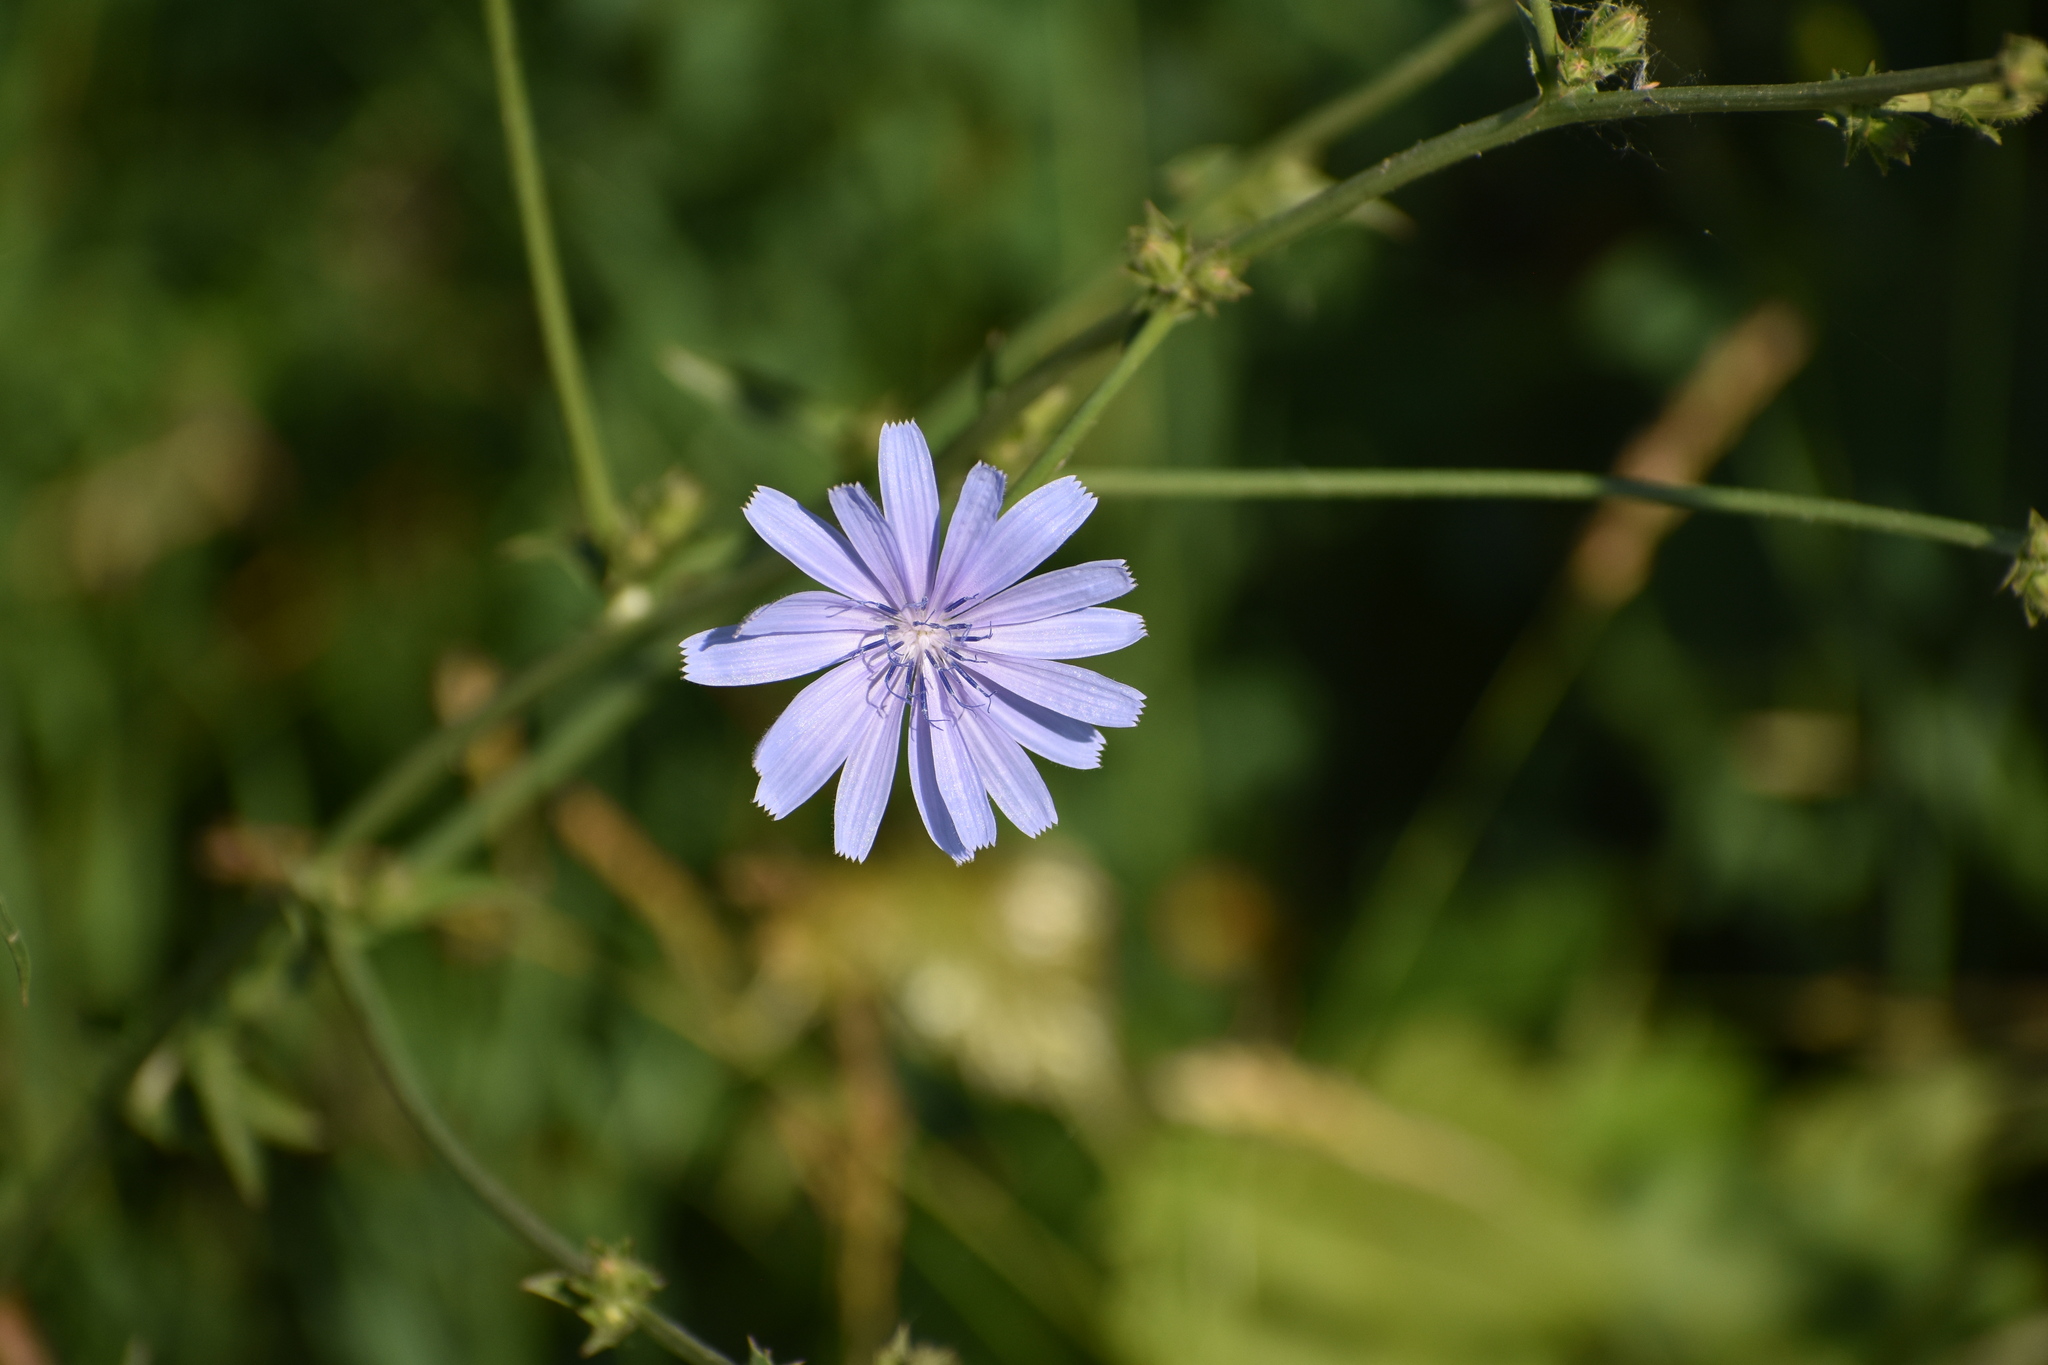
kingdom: Plantae
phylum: Tracheophyta
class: Magnoliopsida
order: Asterales
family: Asteraceae
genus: Cichorium
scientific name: Cichorium intybus
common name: Chicory
